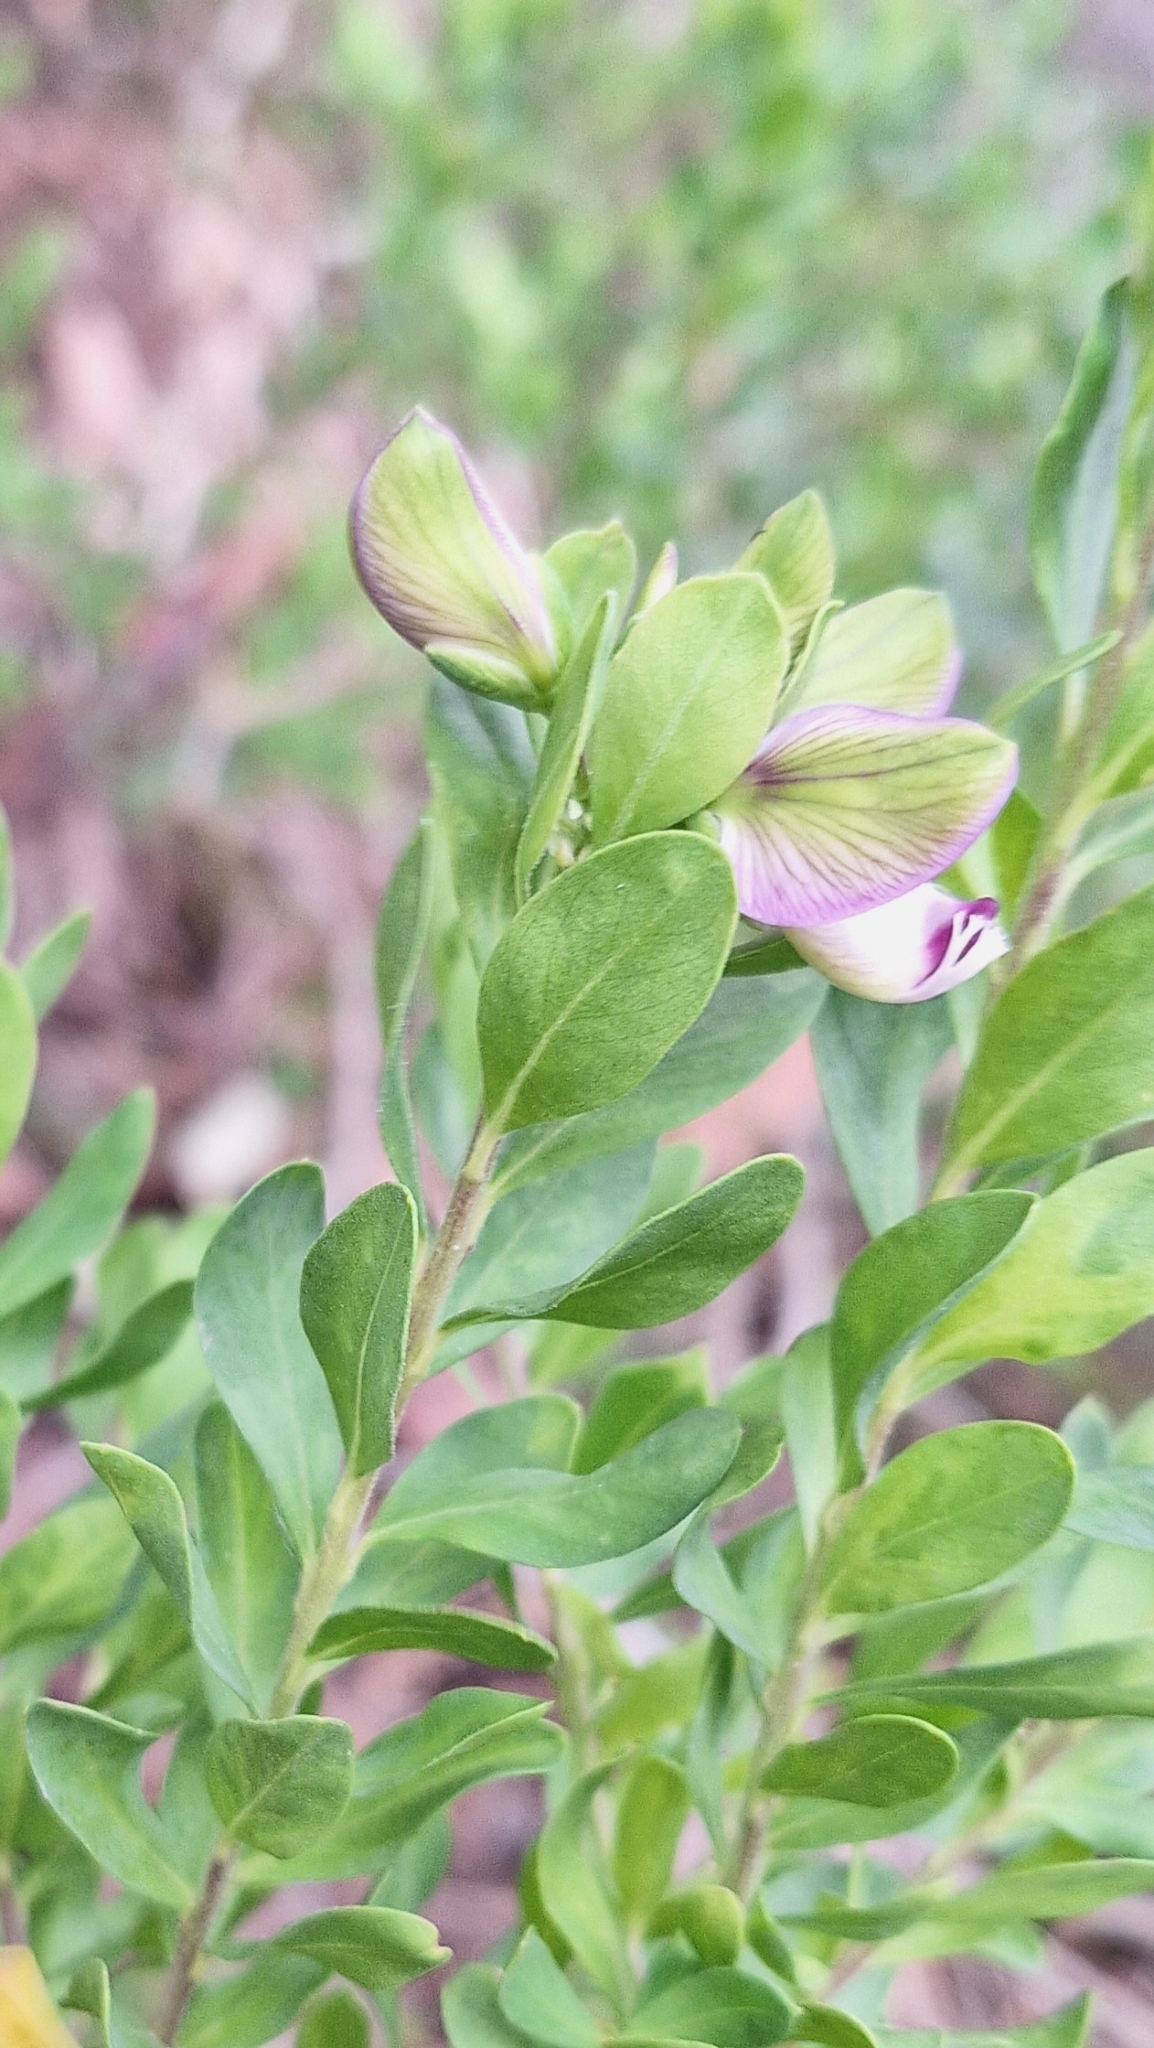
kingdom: Plantae
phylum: Tracheophyta
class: Magnoliopsida
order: Fabales
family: Polygalaceae
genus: Polygala
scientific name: Polygala myrtifolia
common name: Myrtle-leaf milkwort
